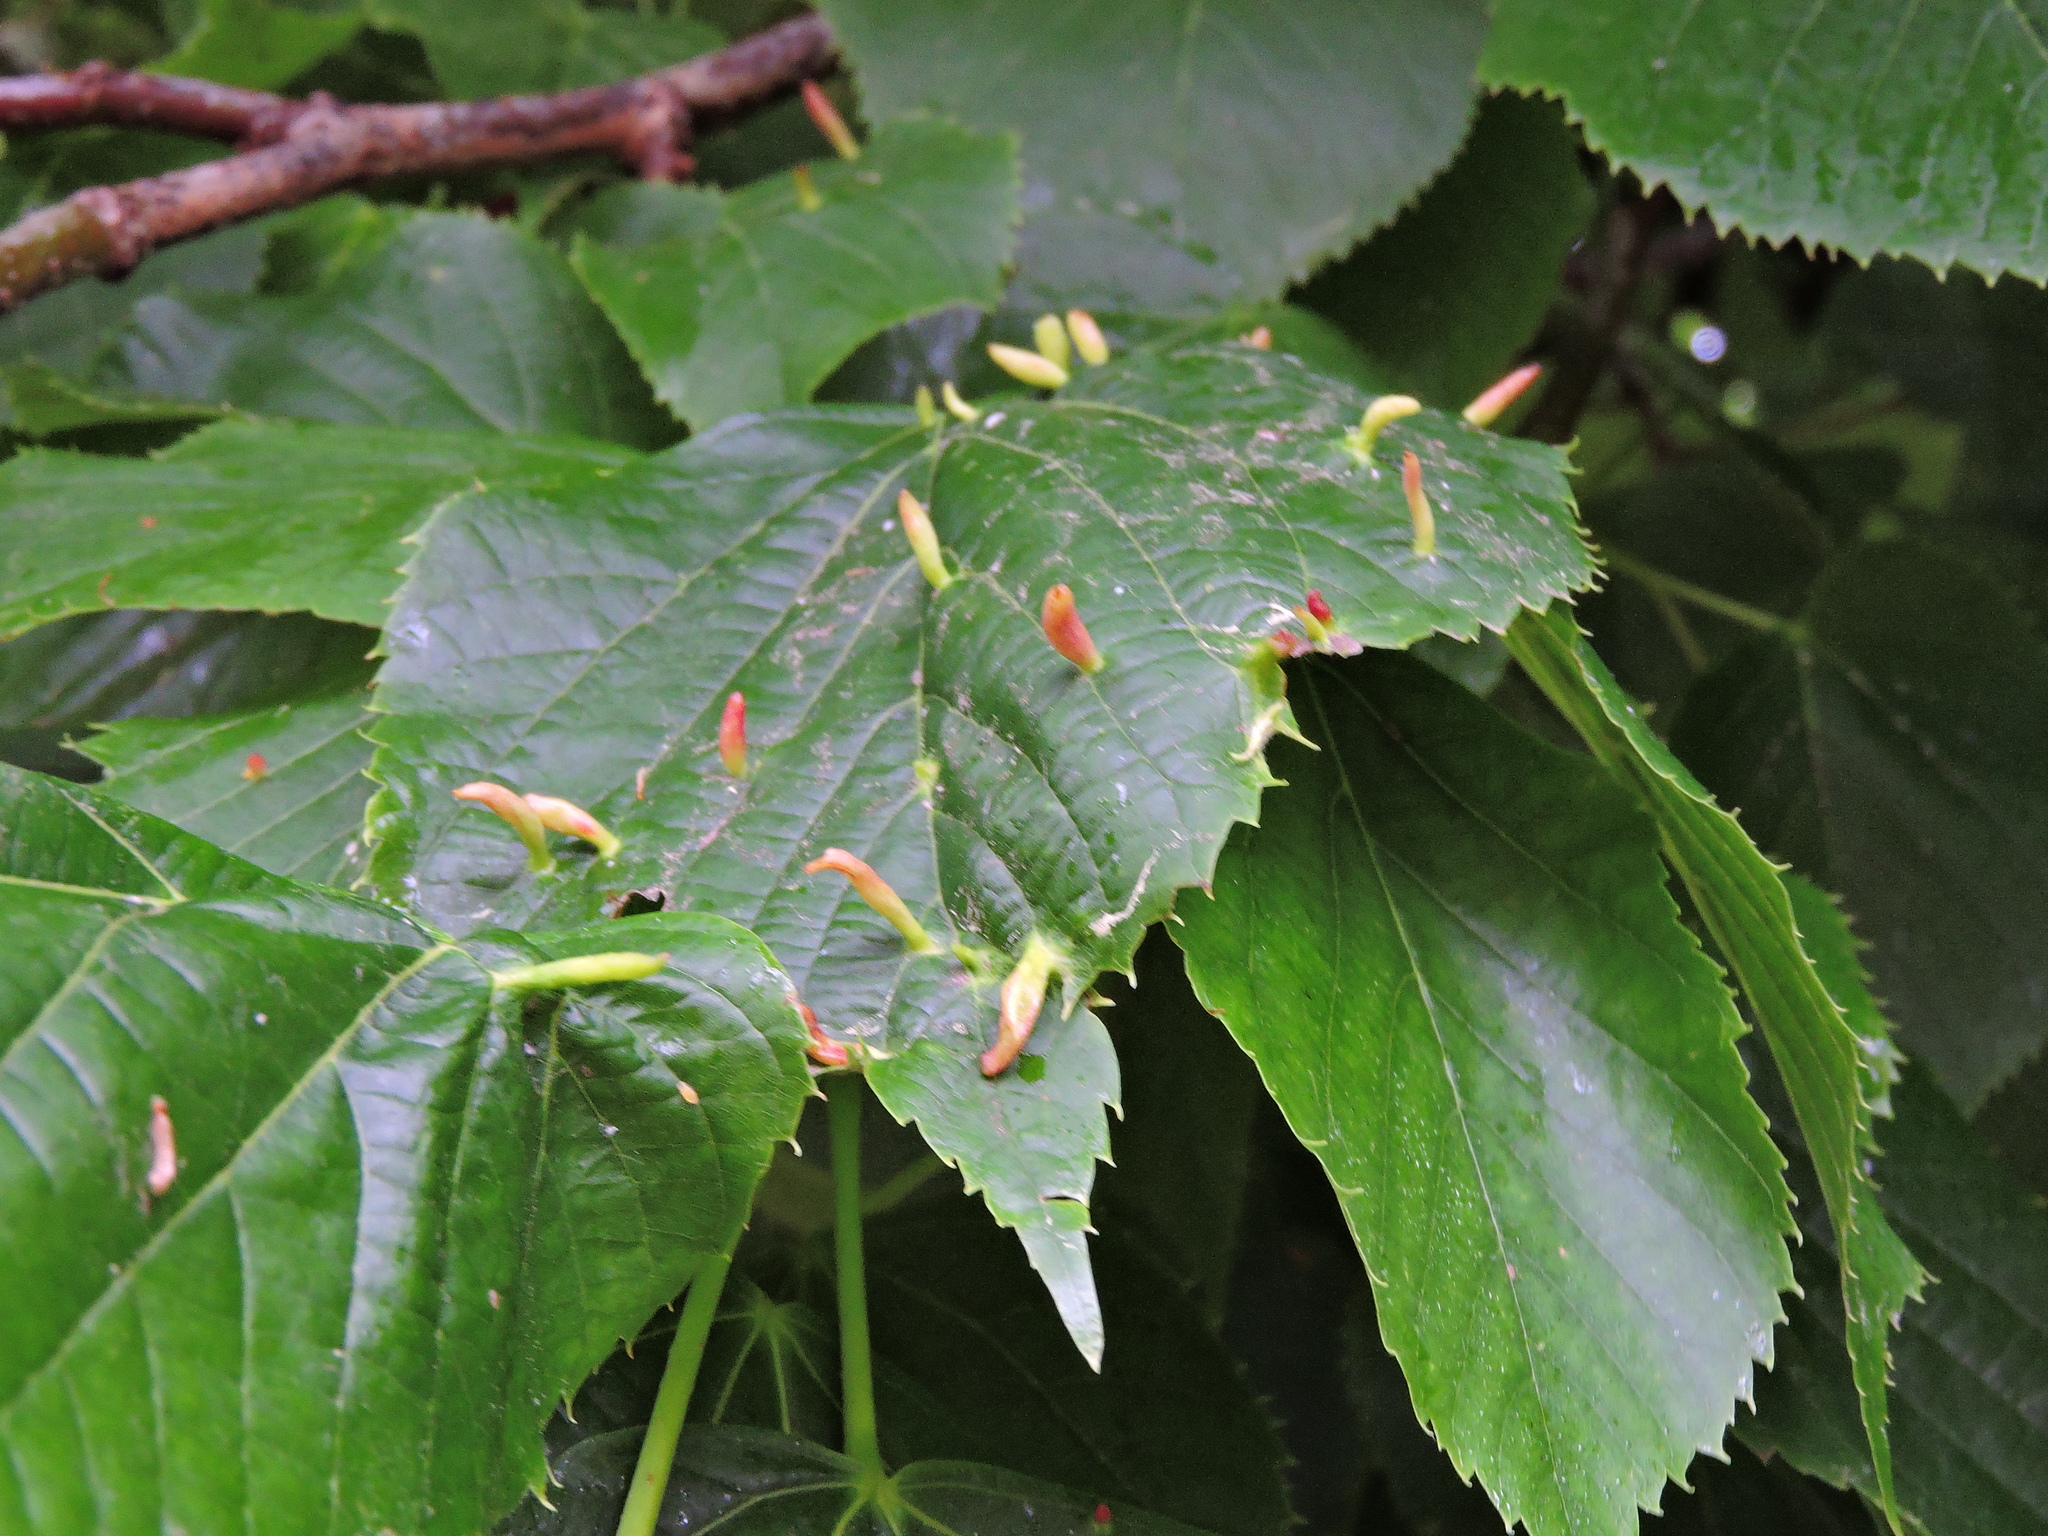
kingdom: Animalia
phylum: Arthropoda
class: Arachnida
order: Trombidiformes
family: Eriophyidae
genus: Eriophyes
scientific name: Eriophyes tiliae
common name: Red nail gall mite
